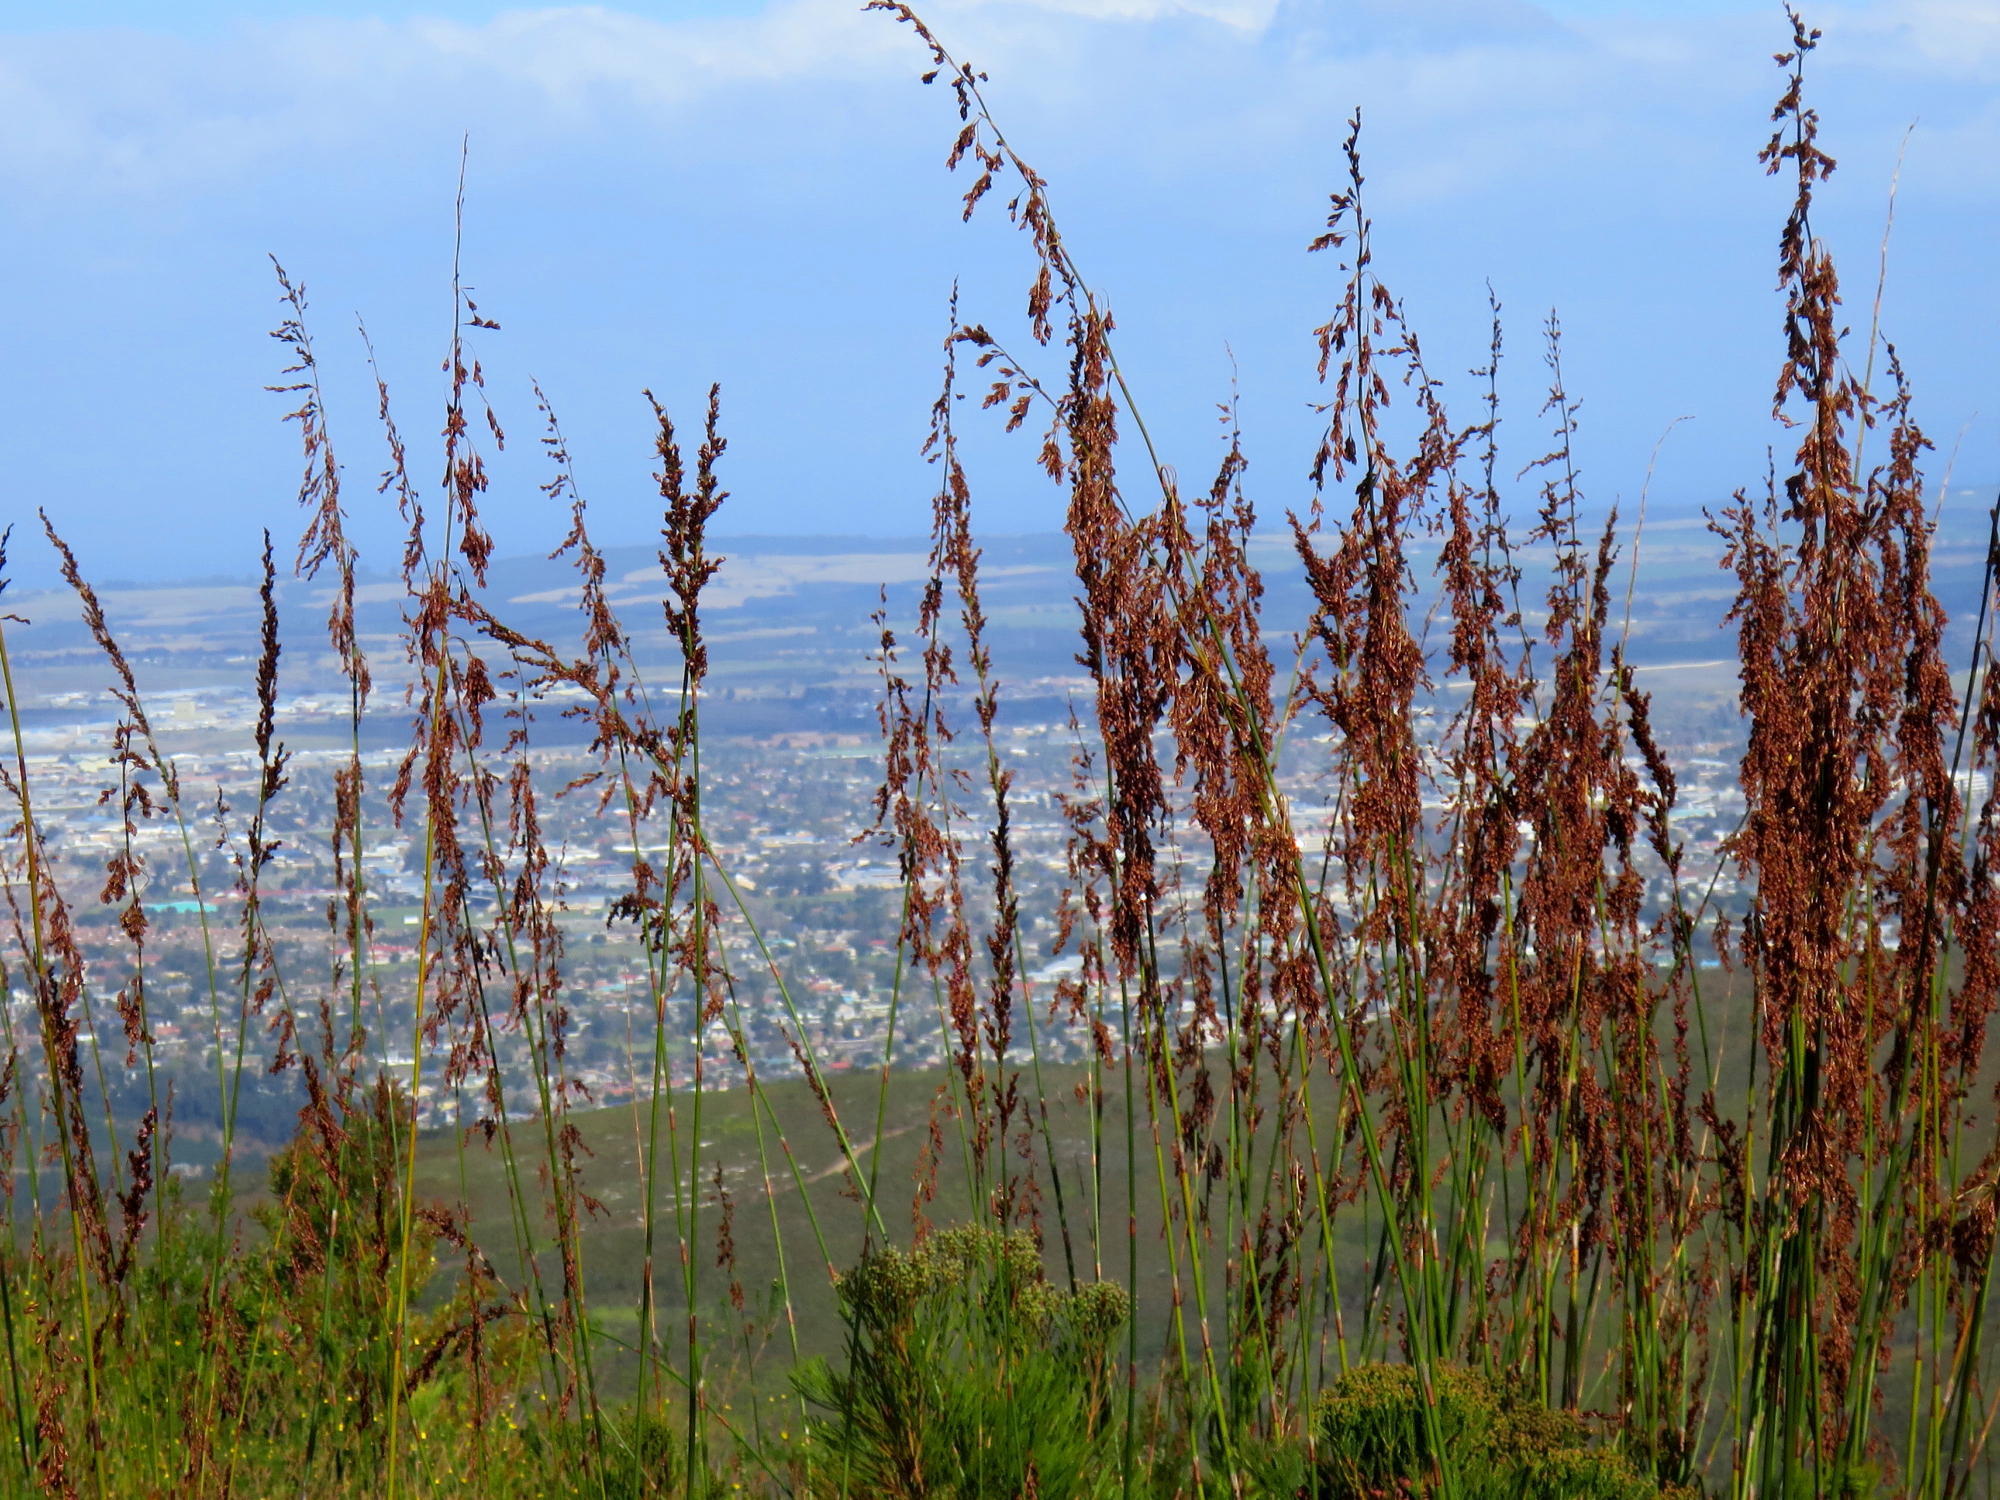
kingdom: Plantae
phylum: Tracheophyta
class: Liliopsida
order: Poales
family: Restionaceae
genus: Rhodocoma
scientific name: Rhodocoma gigantea
